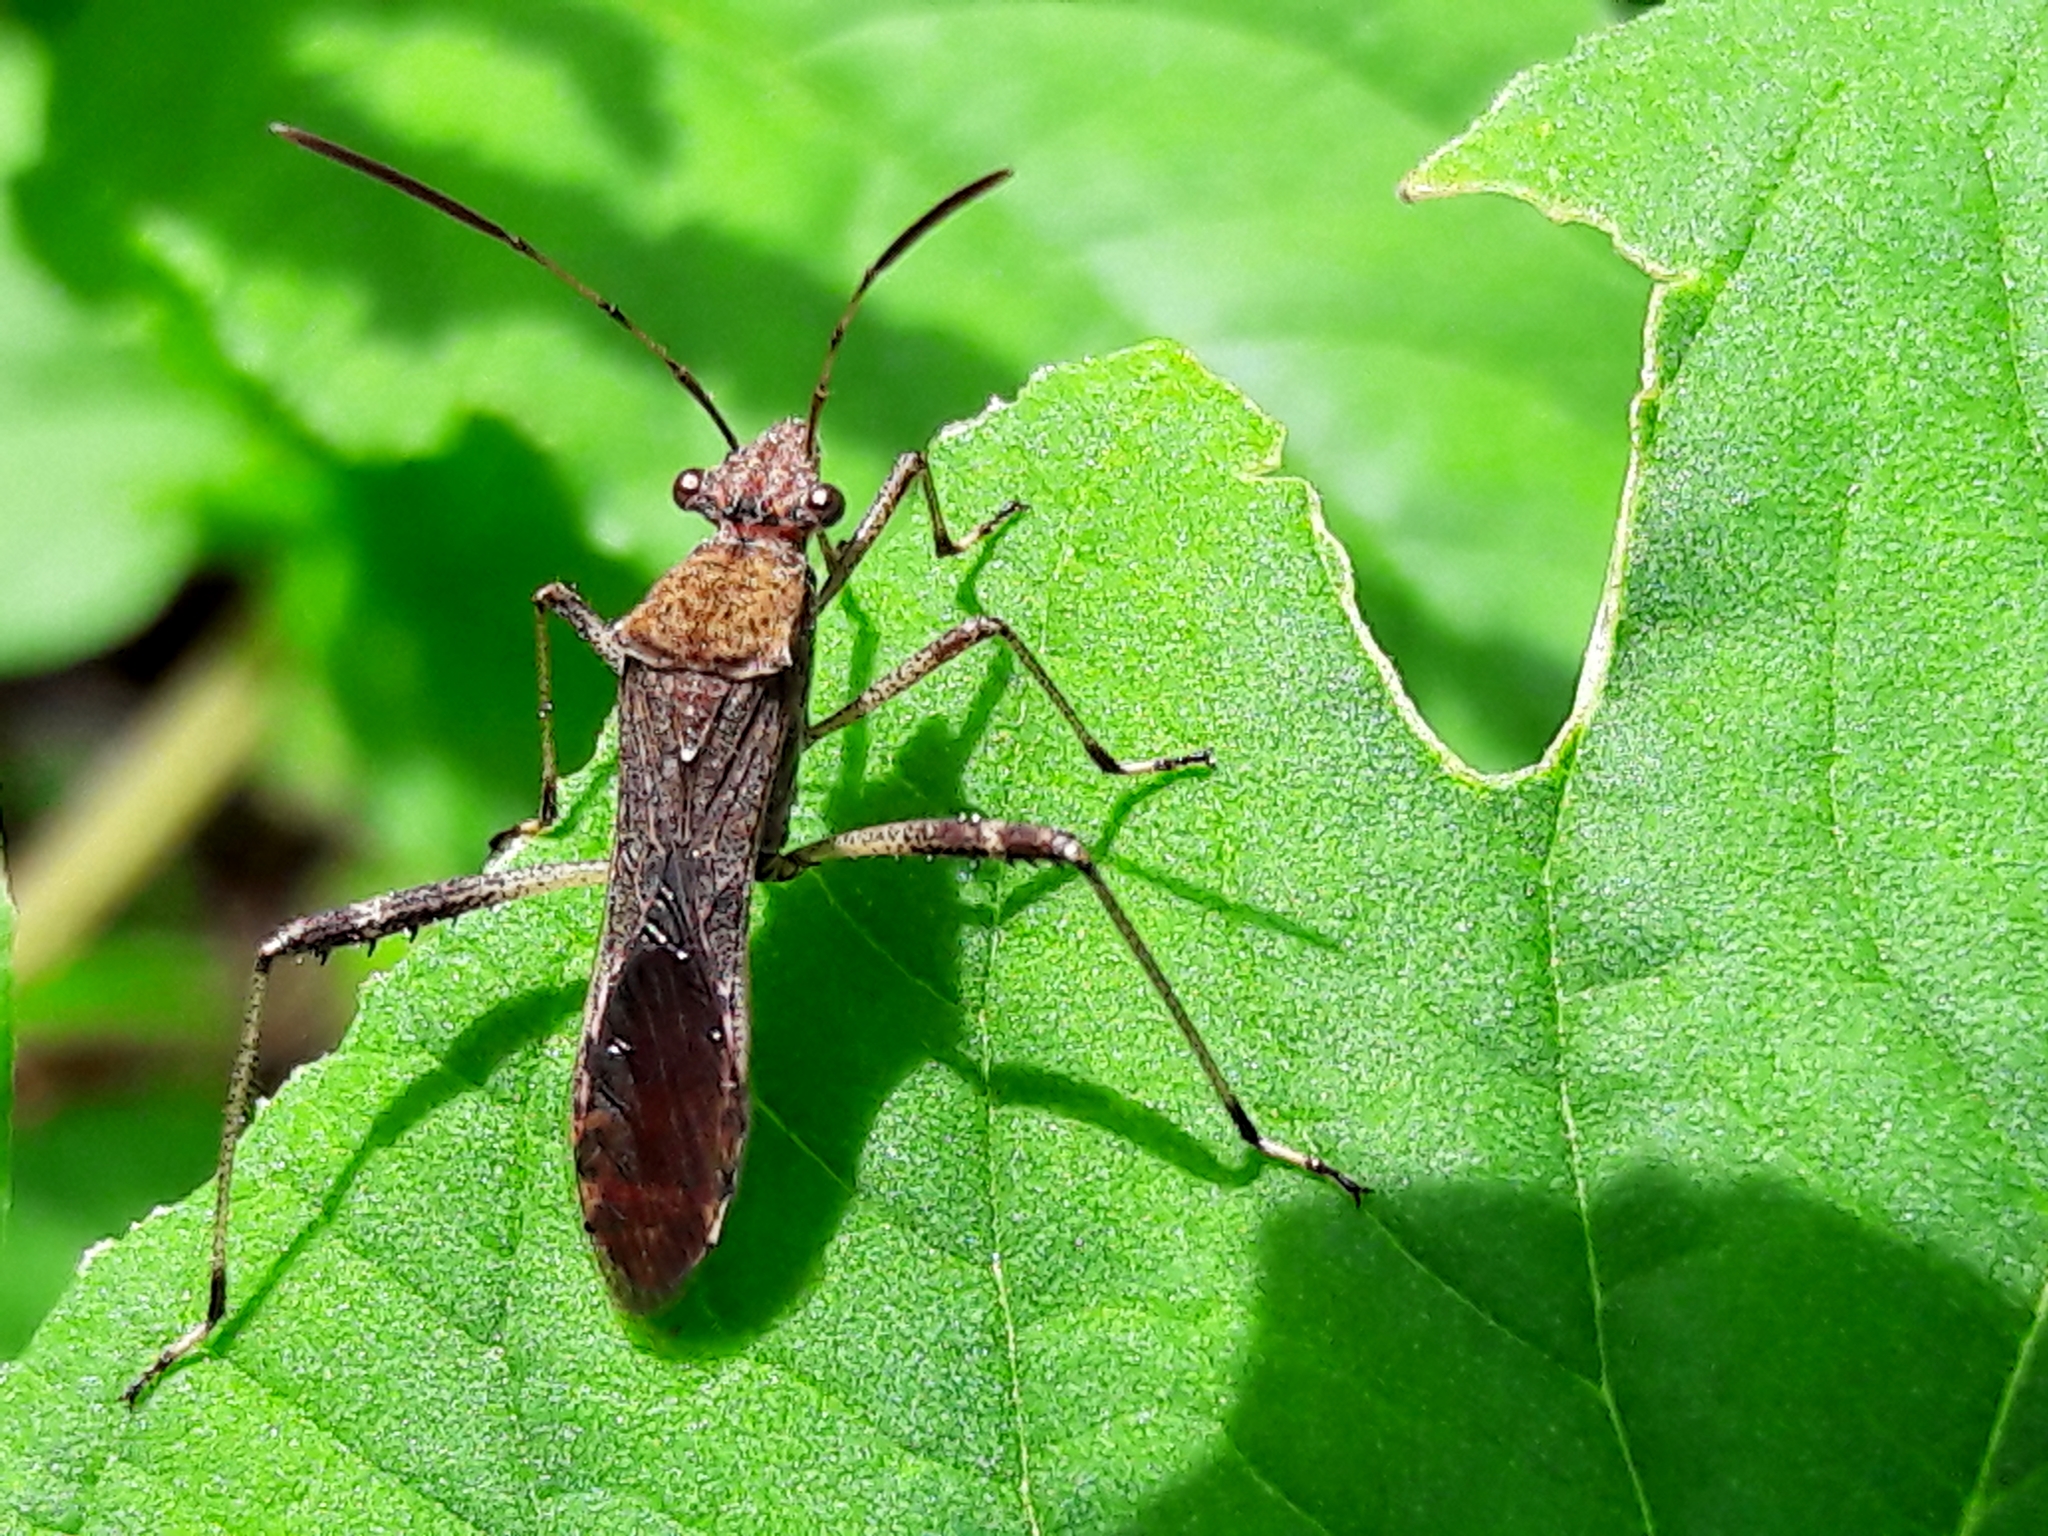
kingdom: Animalia
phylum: Arthropoda
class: Insecta
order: Hemiptera
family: Alydidae
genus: Neomegalotomus
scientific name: Neomegalotomus parvus
